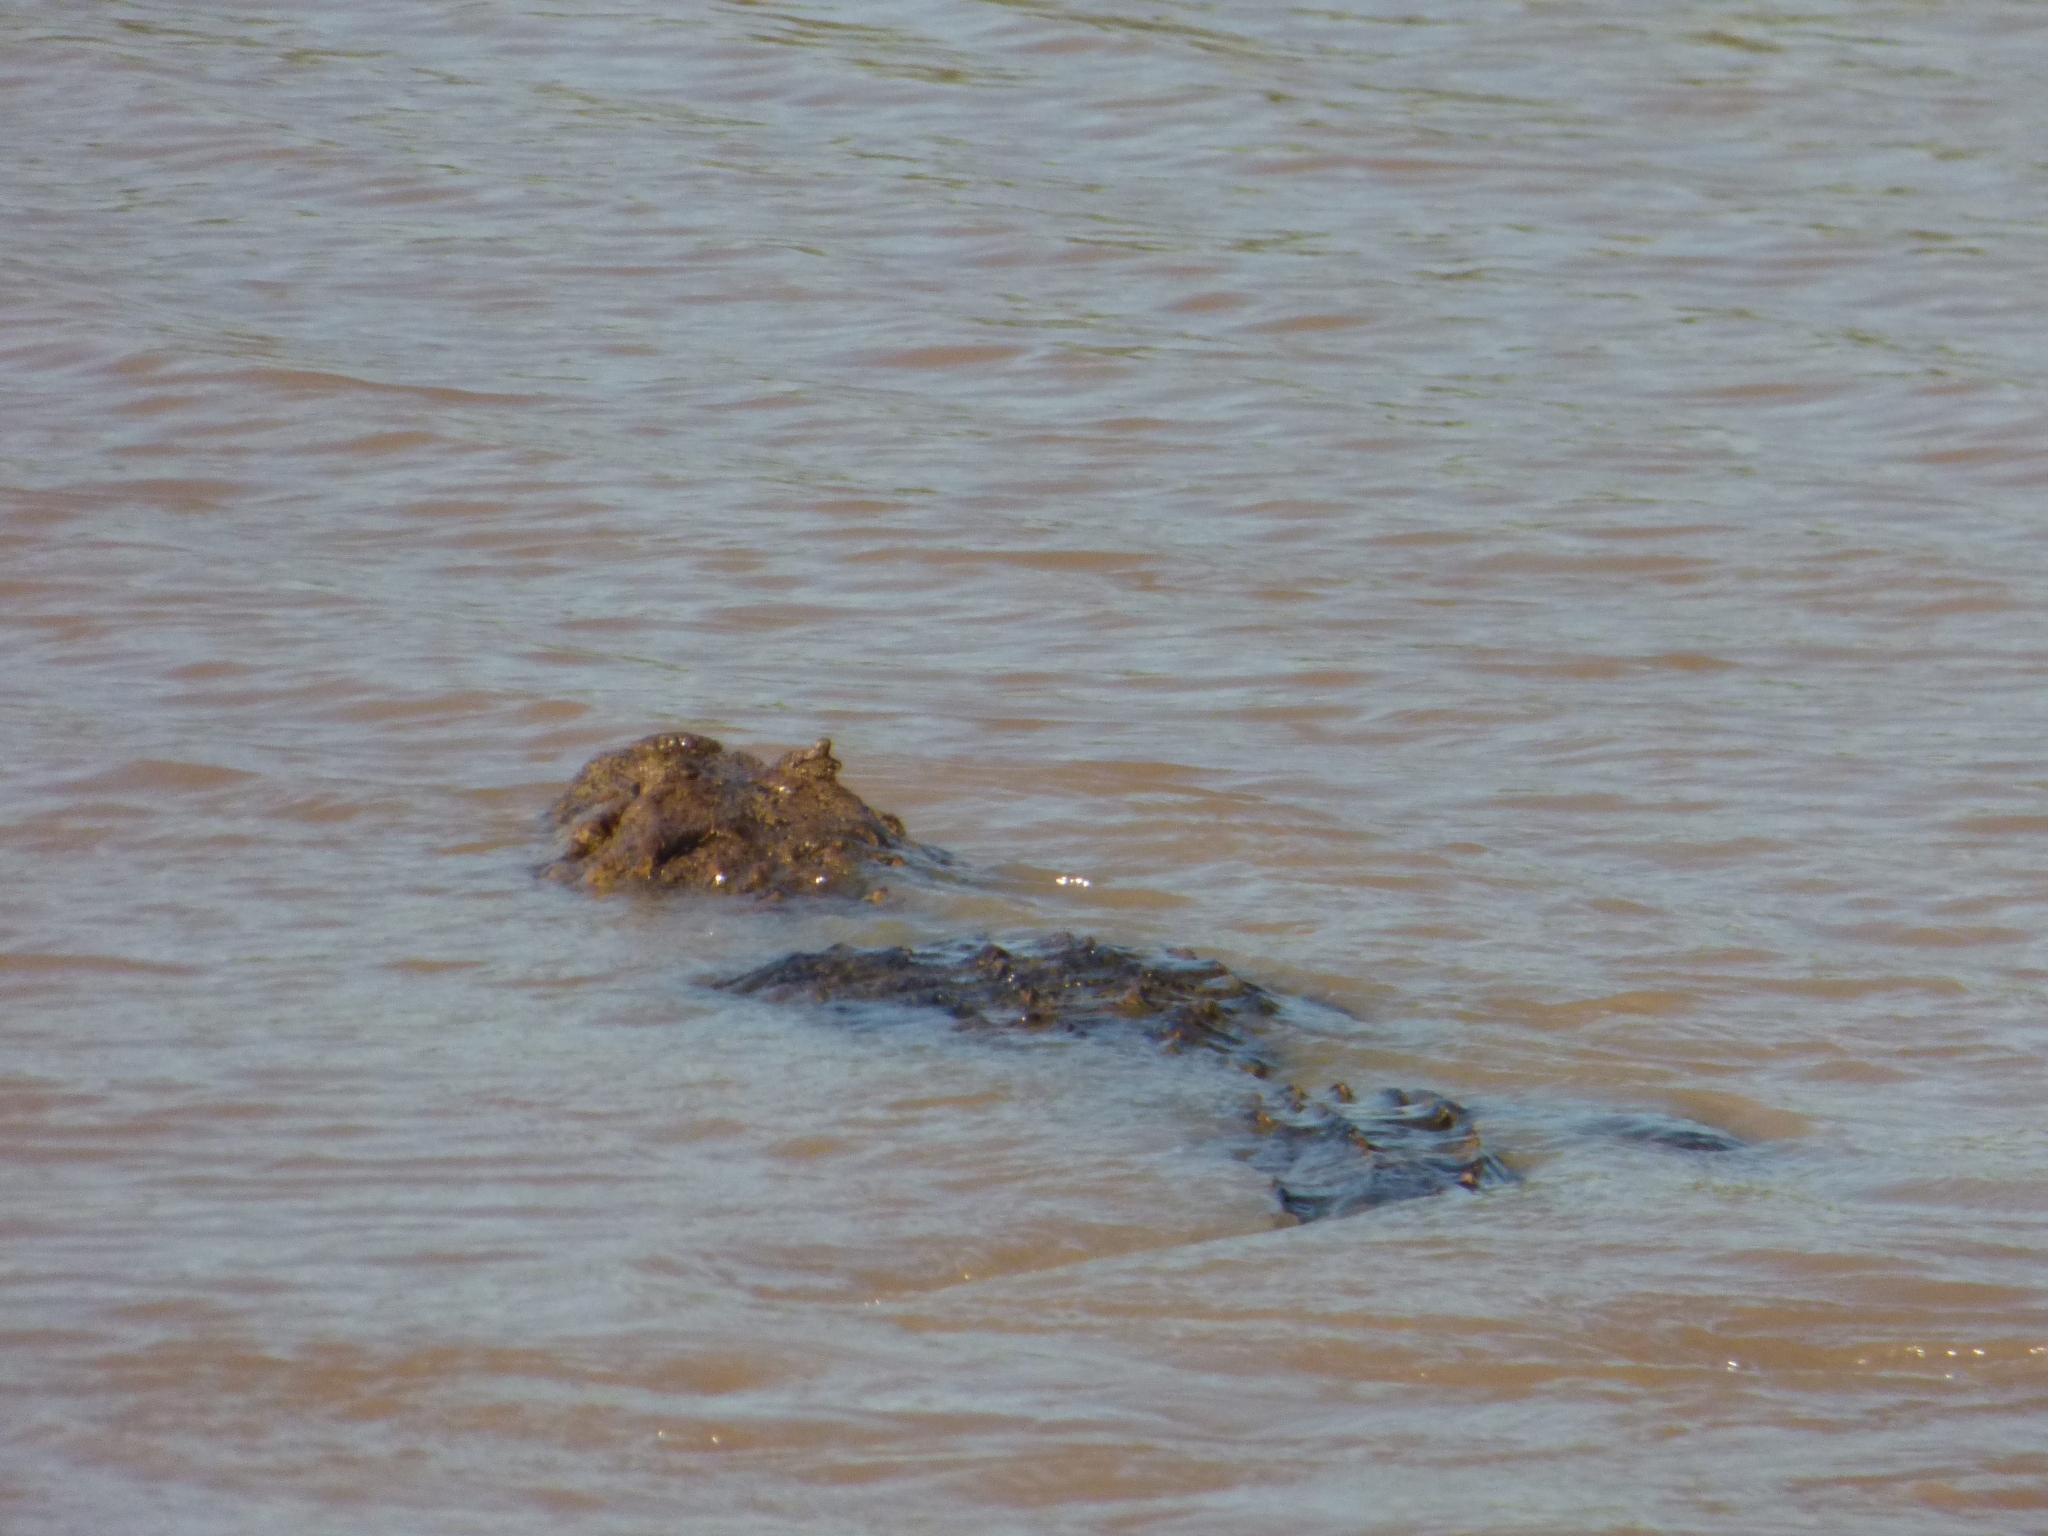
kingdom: Animalia
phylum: Chordata
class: Crocodylia
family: Alligatoridae
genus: Caiman
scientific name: Caiman yacare
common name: Yacare caiman
